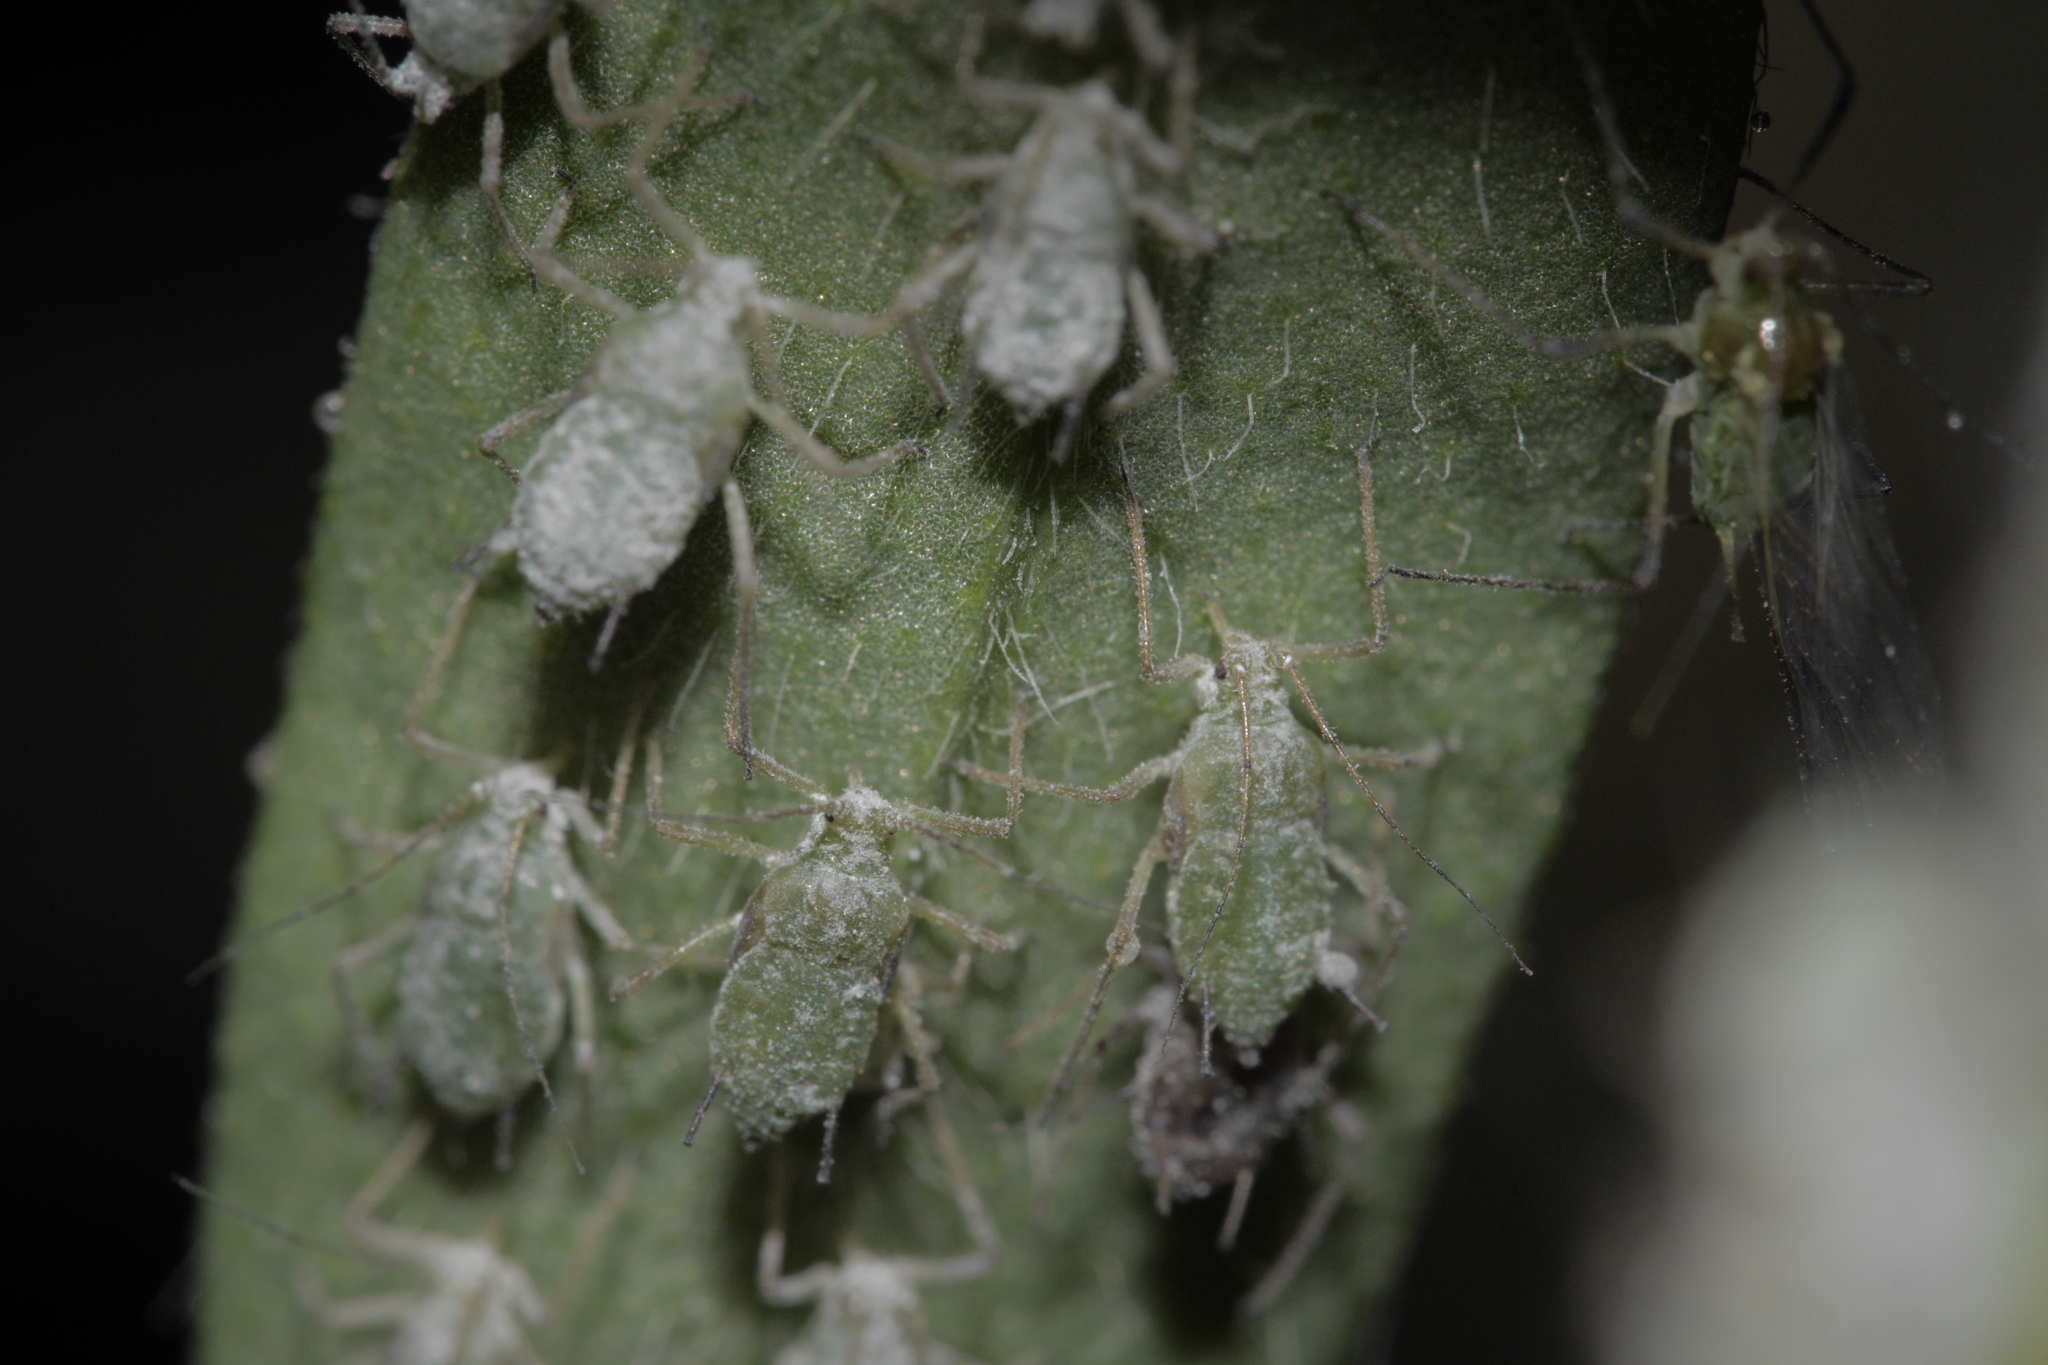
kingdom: Animalia
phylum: Arthropoda
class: Insecta
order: Hemiptera
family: Aphididae
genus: Macrosiphum
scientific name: Macrosiphum albifrons
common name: Lupine aphid
